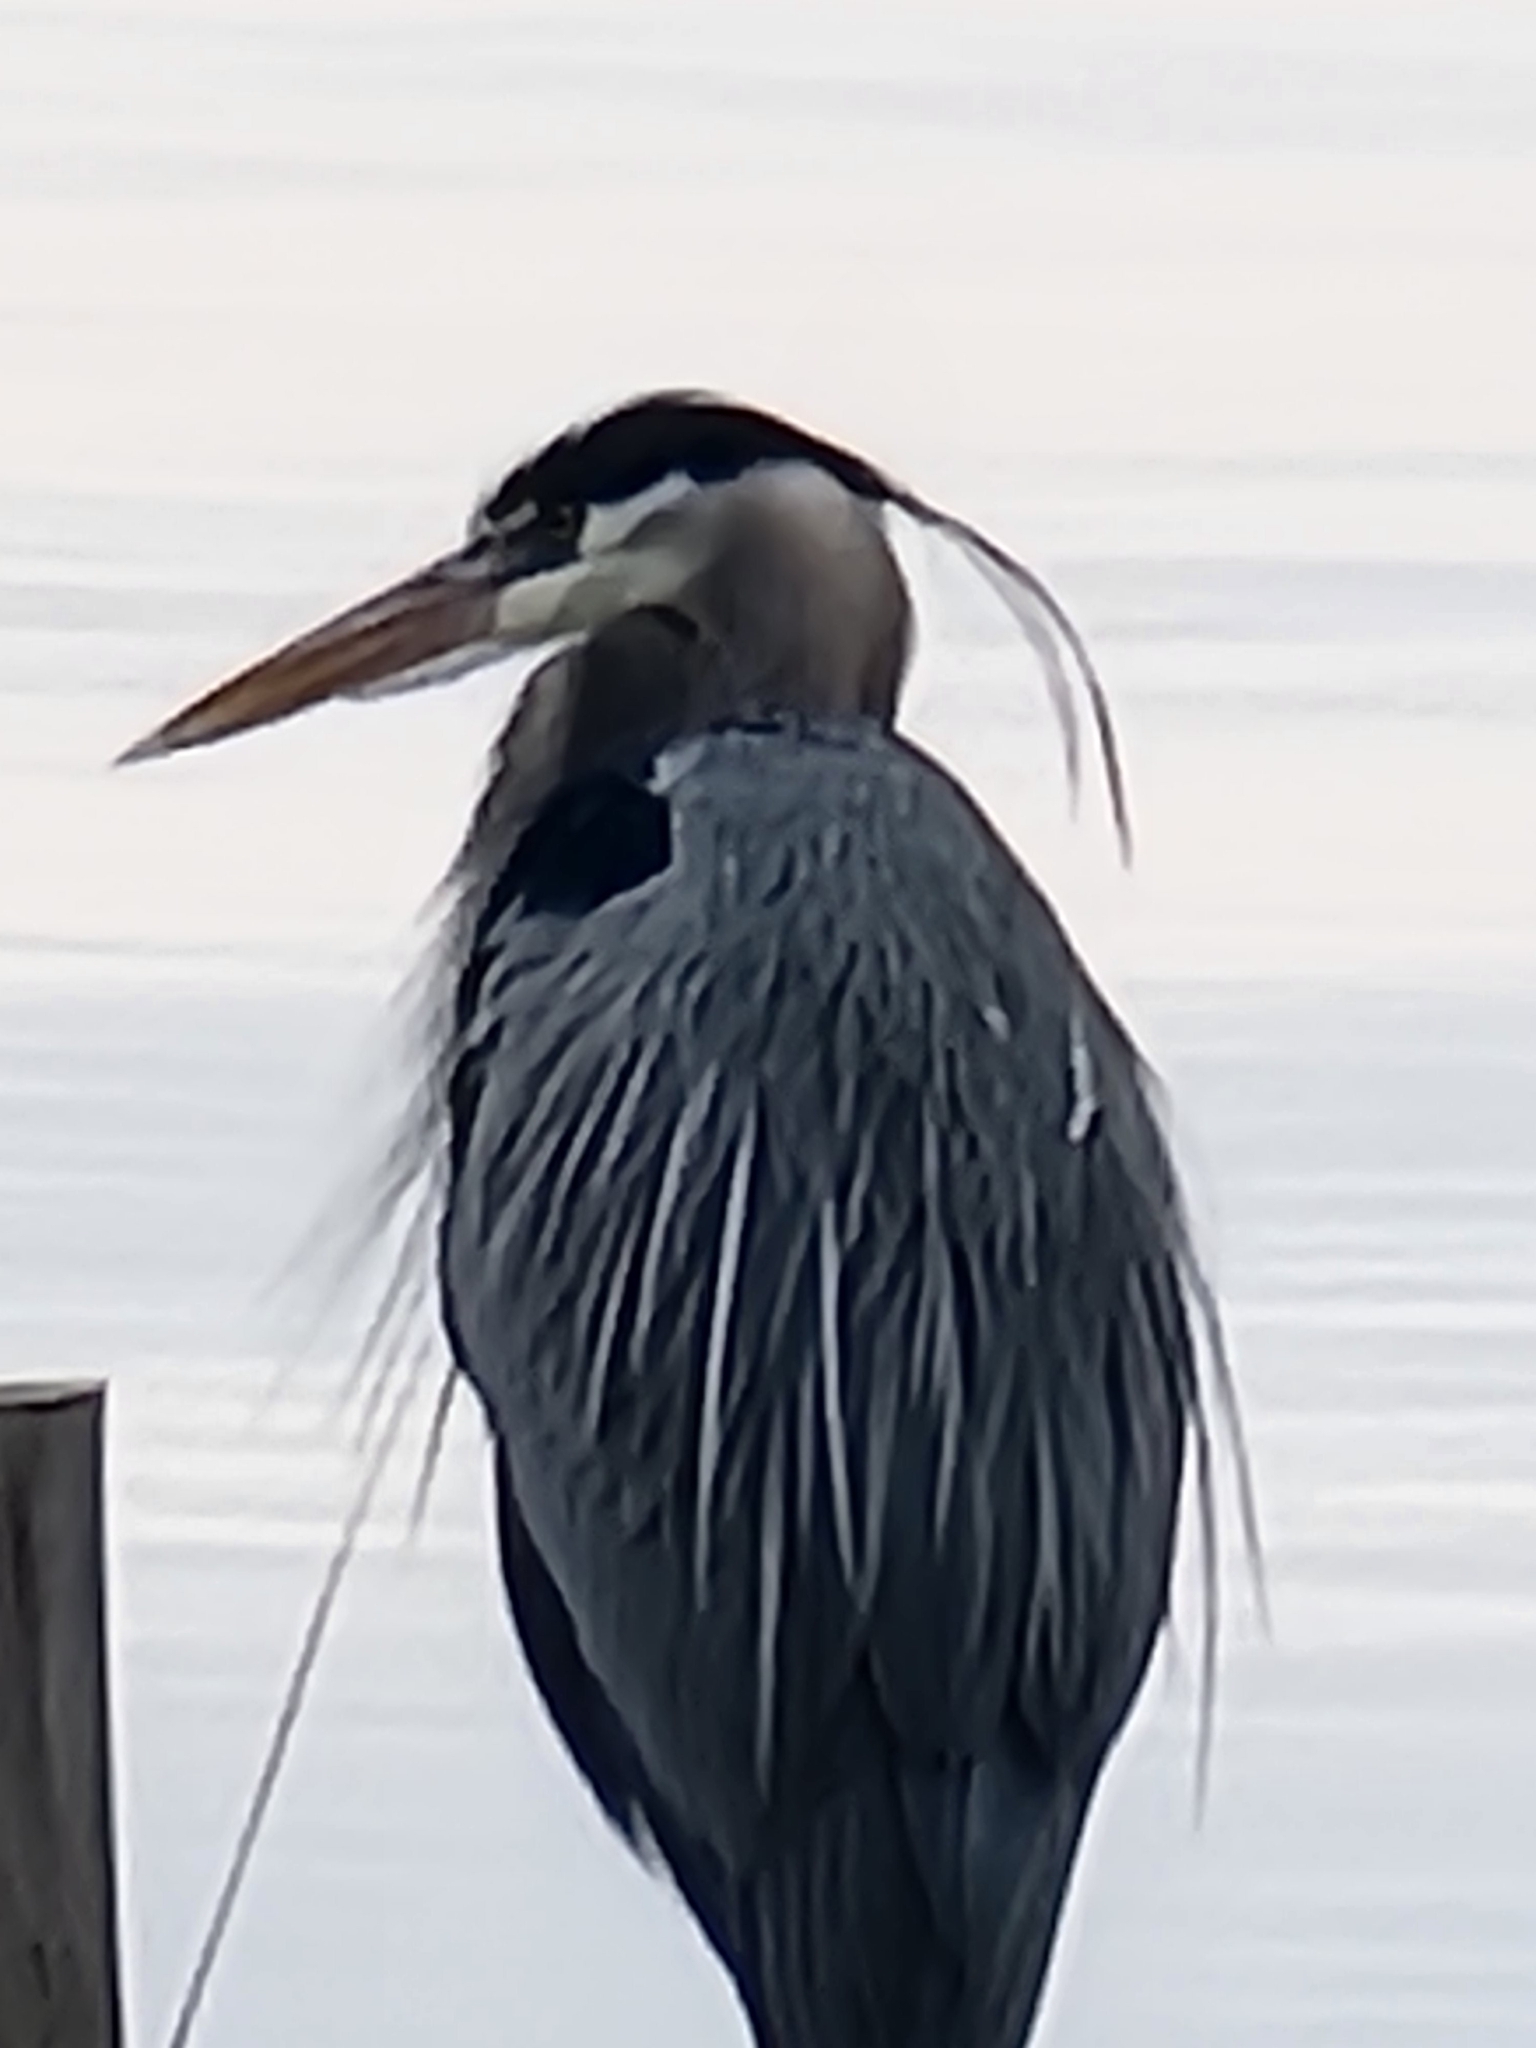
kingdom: Animalia
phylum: Chordata
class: Aves
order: Pelecaniformes
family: Ardeidae
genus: Ardea
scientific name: Ardea herodias
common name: Great blue heron
